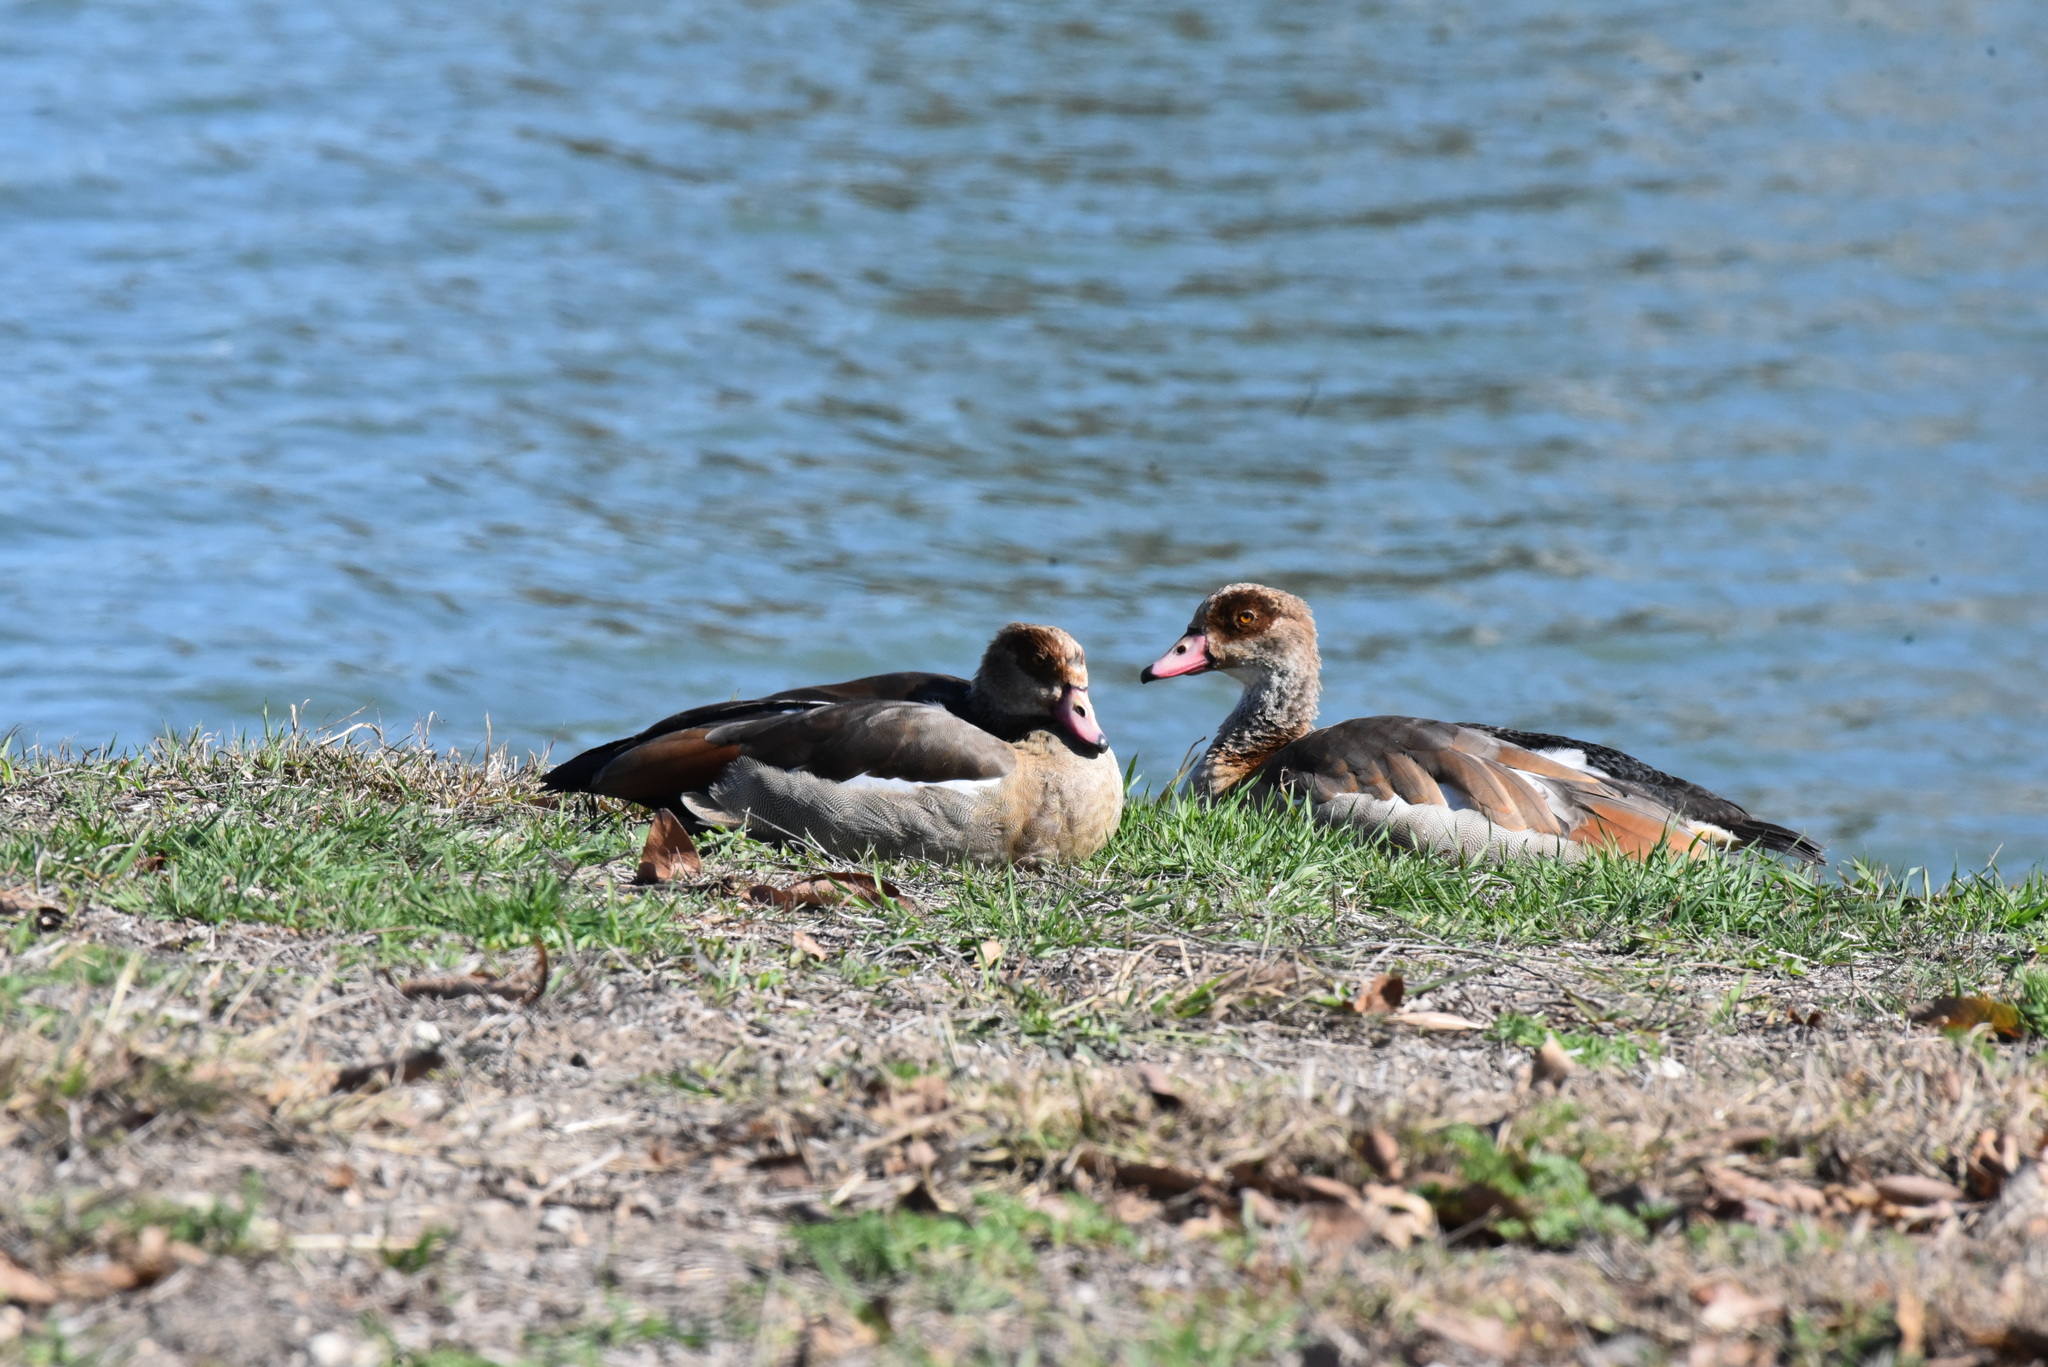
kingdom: Animalia
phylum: Chordata
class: Aves
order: Anseriformes
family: Anatidae
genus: Alopochen
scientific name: Alopochen aegyptiaca
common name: Egyptian goose
